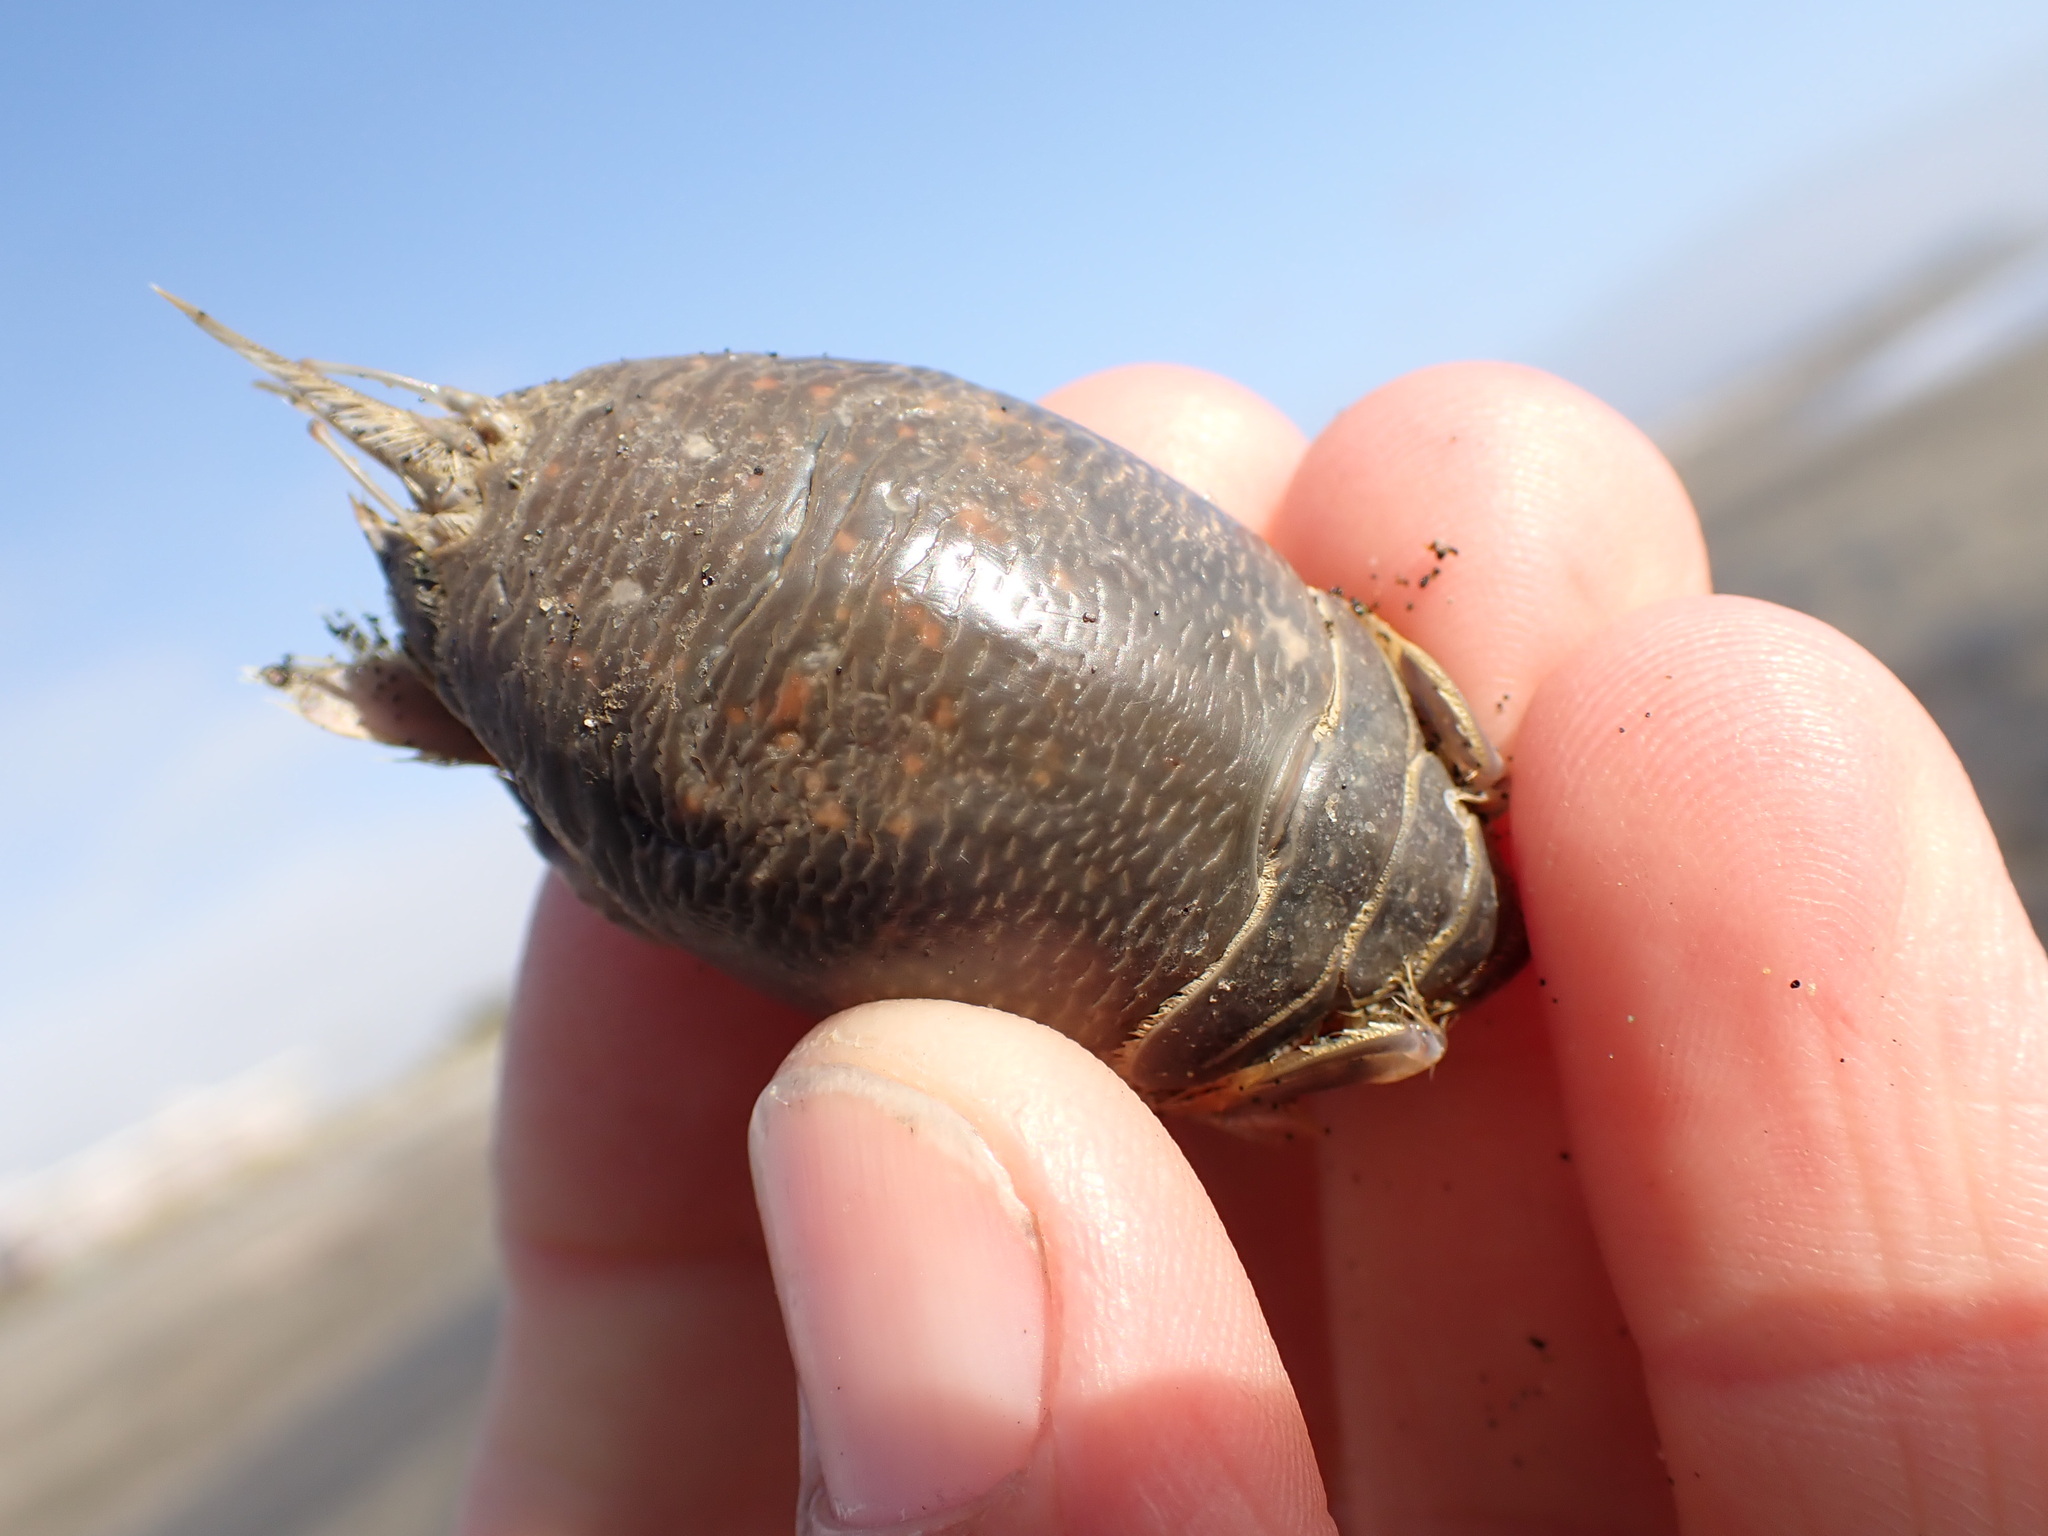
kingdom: Animalia
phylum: Arthropoda
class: Malacostraca
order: Decapoda
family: Hippidae
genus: Emerita
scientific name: Emerita analoga
